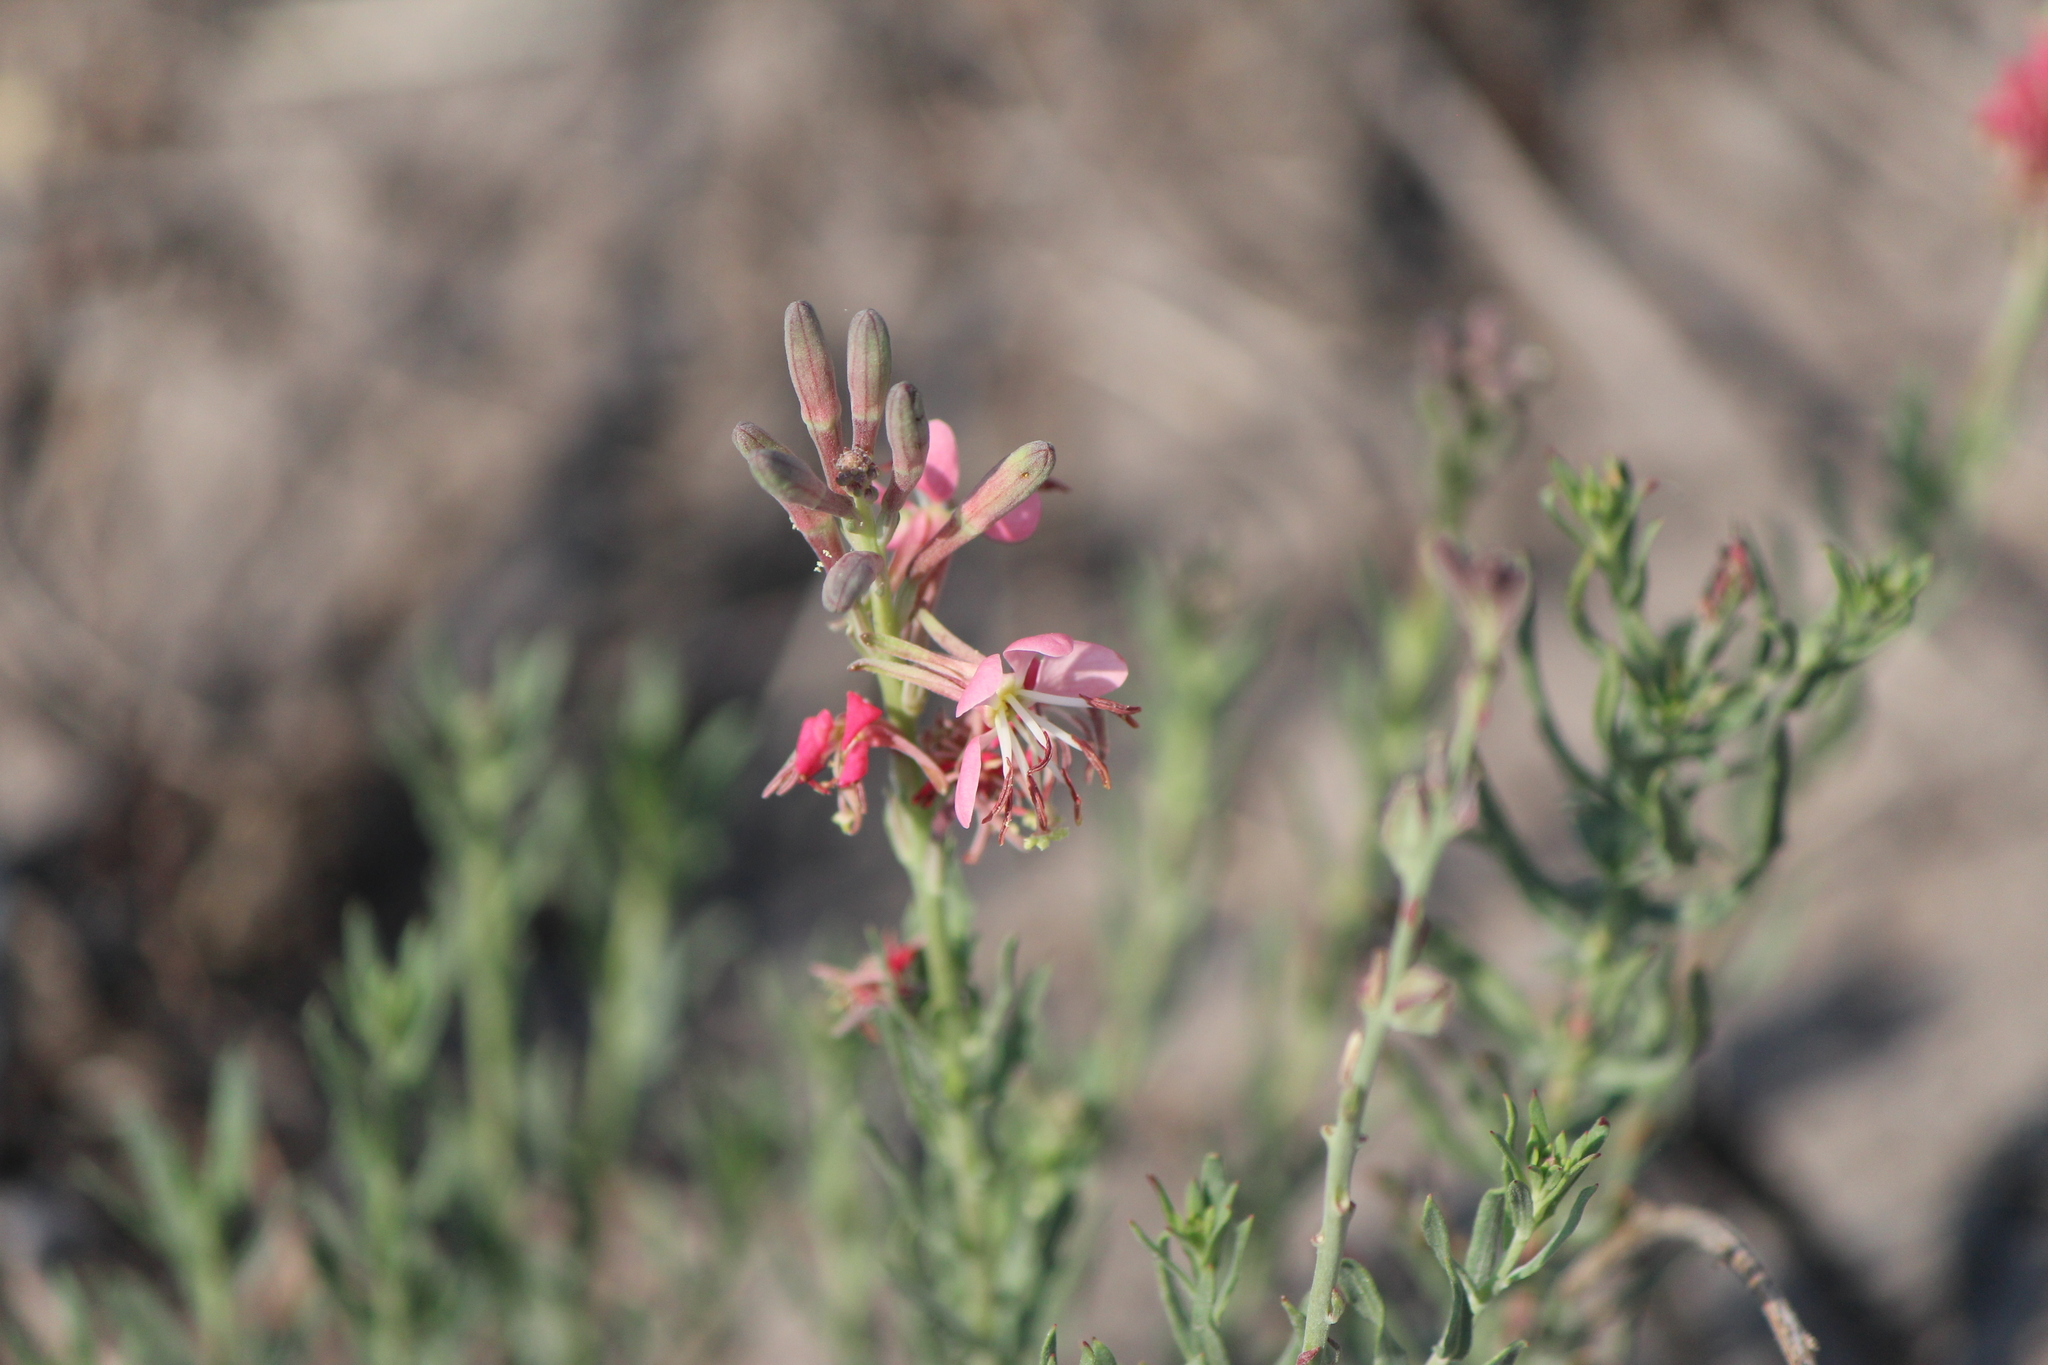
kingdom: Plantae
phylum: Tracheophyta
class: Magnoliopsida
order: Myrtales
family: Onagraceae
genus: Oenothera
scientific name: Oenothera suffrutescens
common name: Scarlet beeblossom
